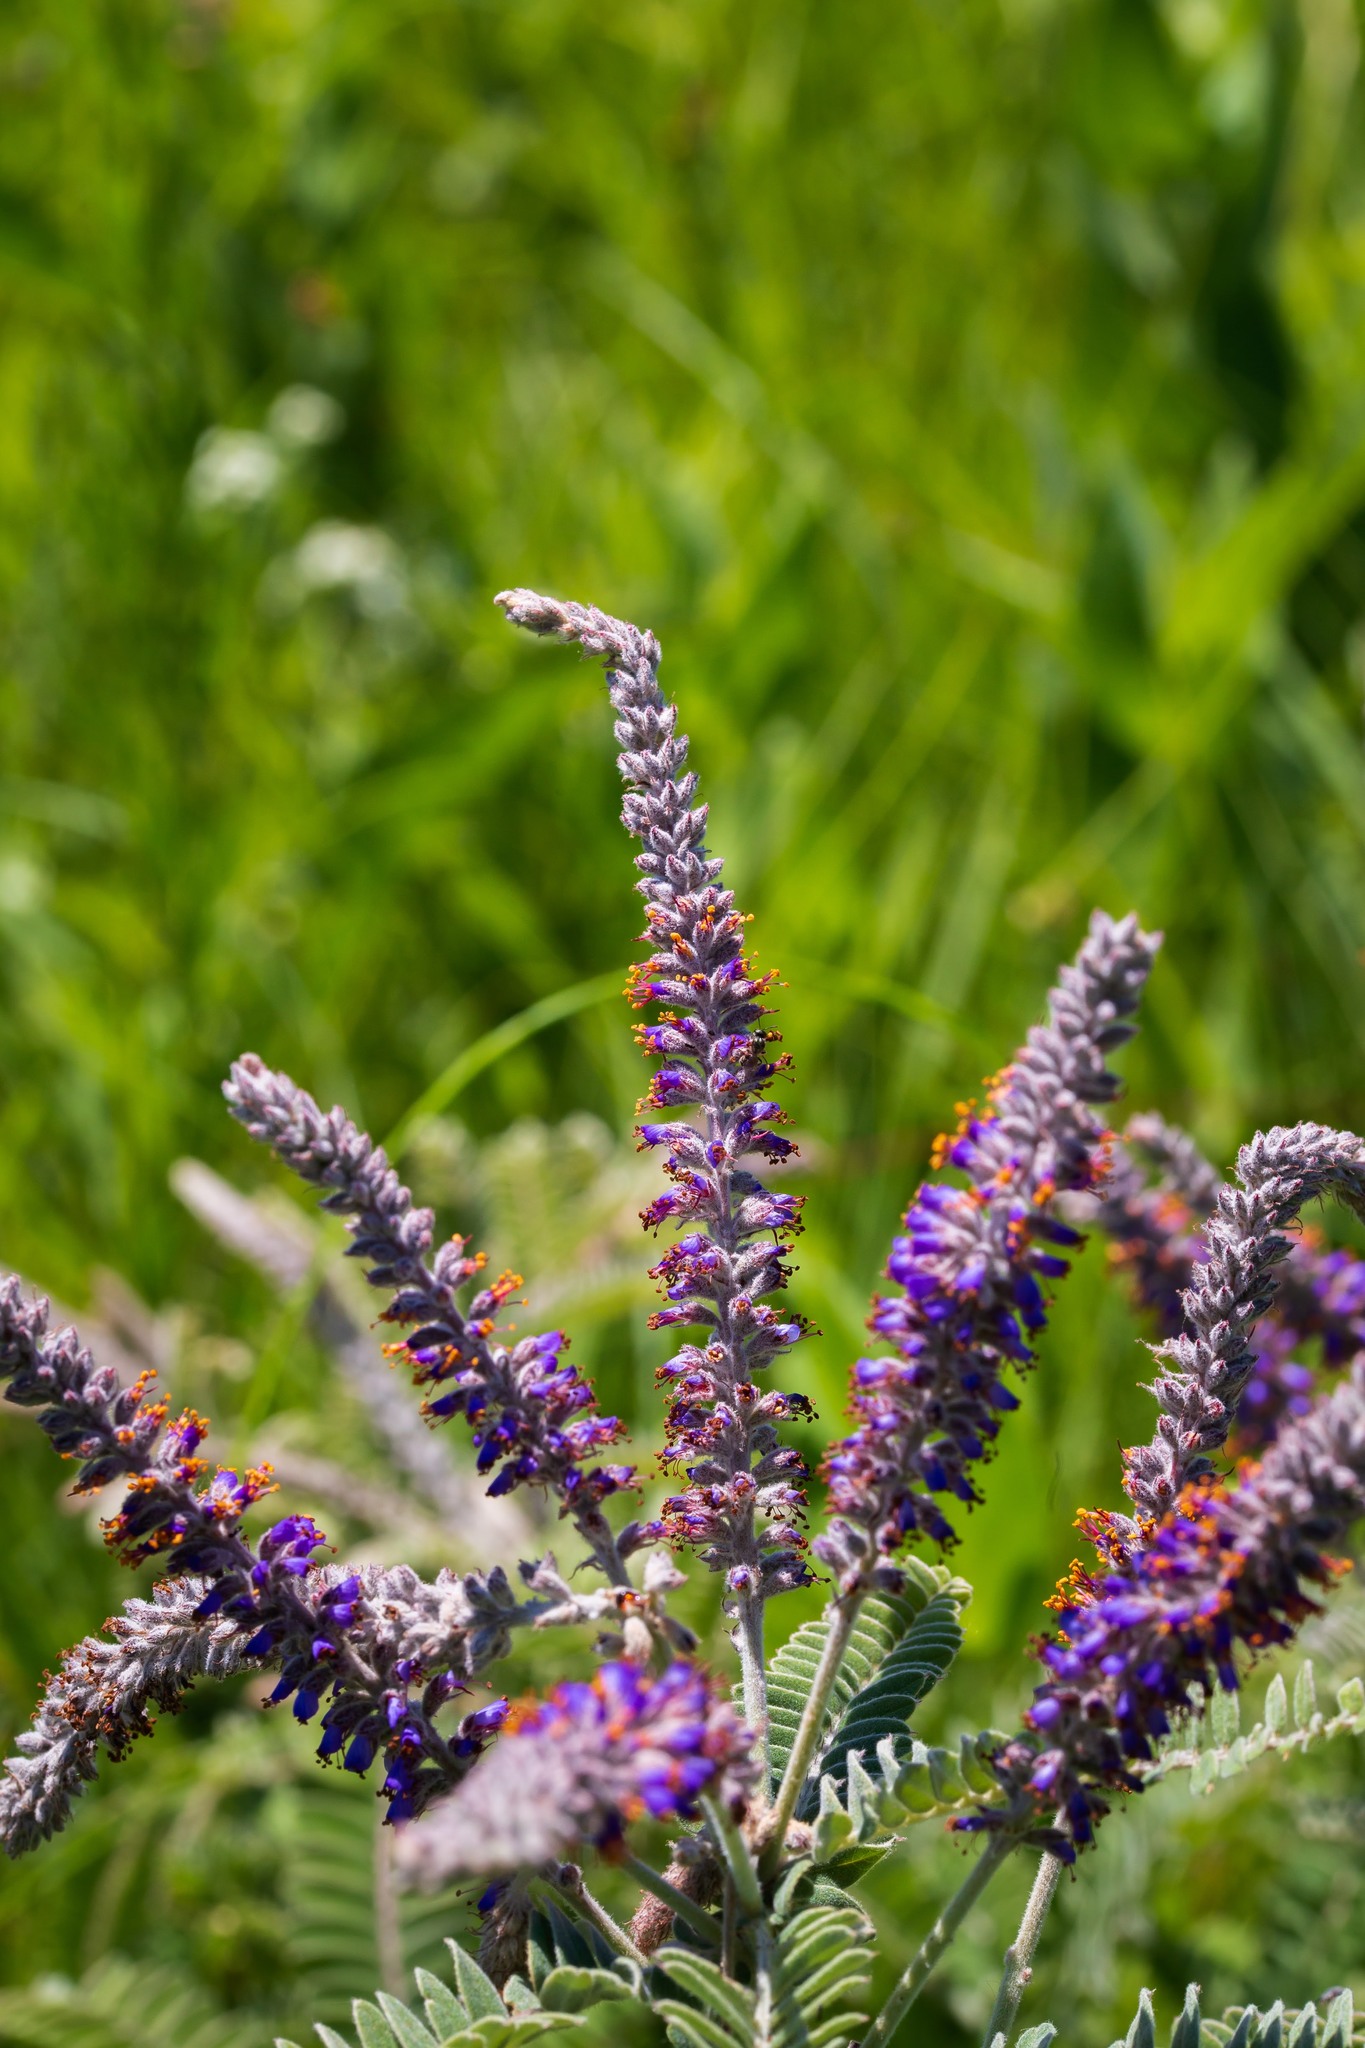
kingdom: Plantae
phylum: Tracheophyta
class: Magnoliopsida
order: Fabales
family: Fabaceae
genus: Amorpha
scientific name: Amorpha canescens
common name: Leadplant
